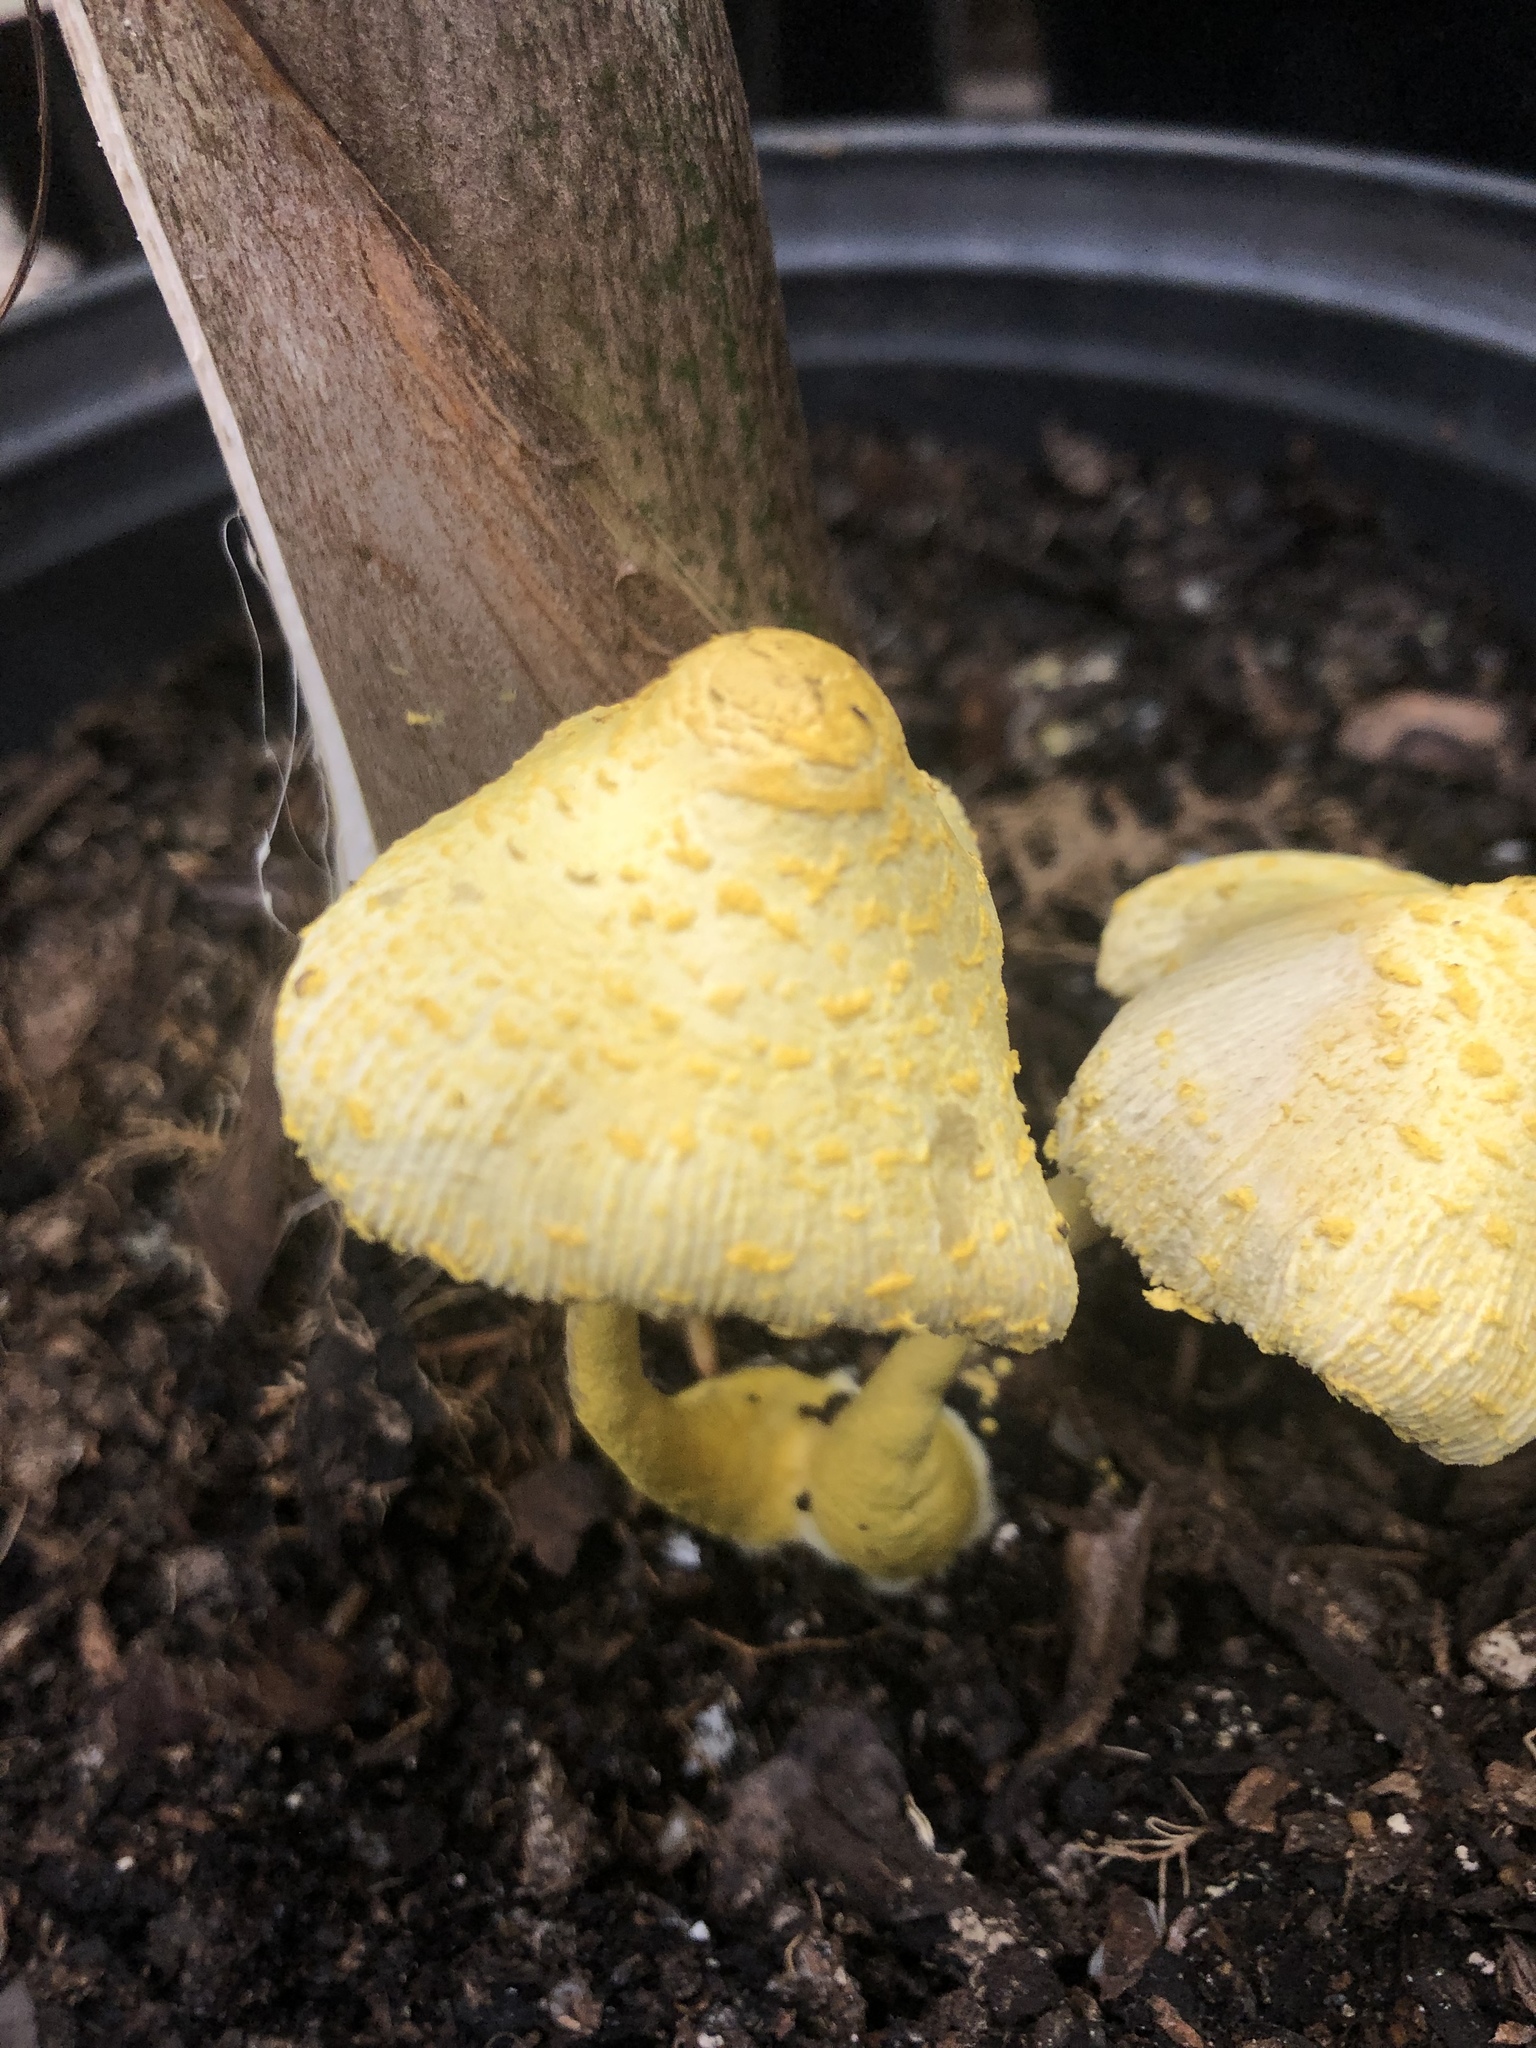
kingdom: Fungi
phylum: Basidiomycota
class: Agaricomycetes
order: Agaricales
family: Agaricaceae
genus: Leucocoprinus
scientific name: Leucocoprinus birnbaumii
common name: Plantpot dapperling
